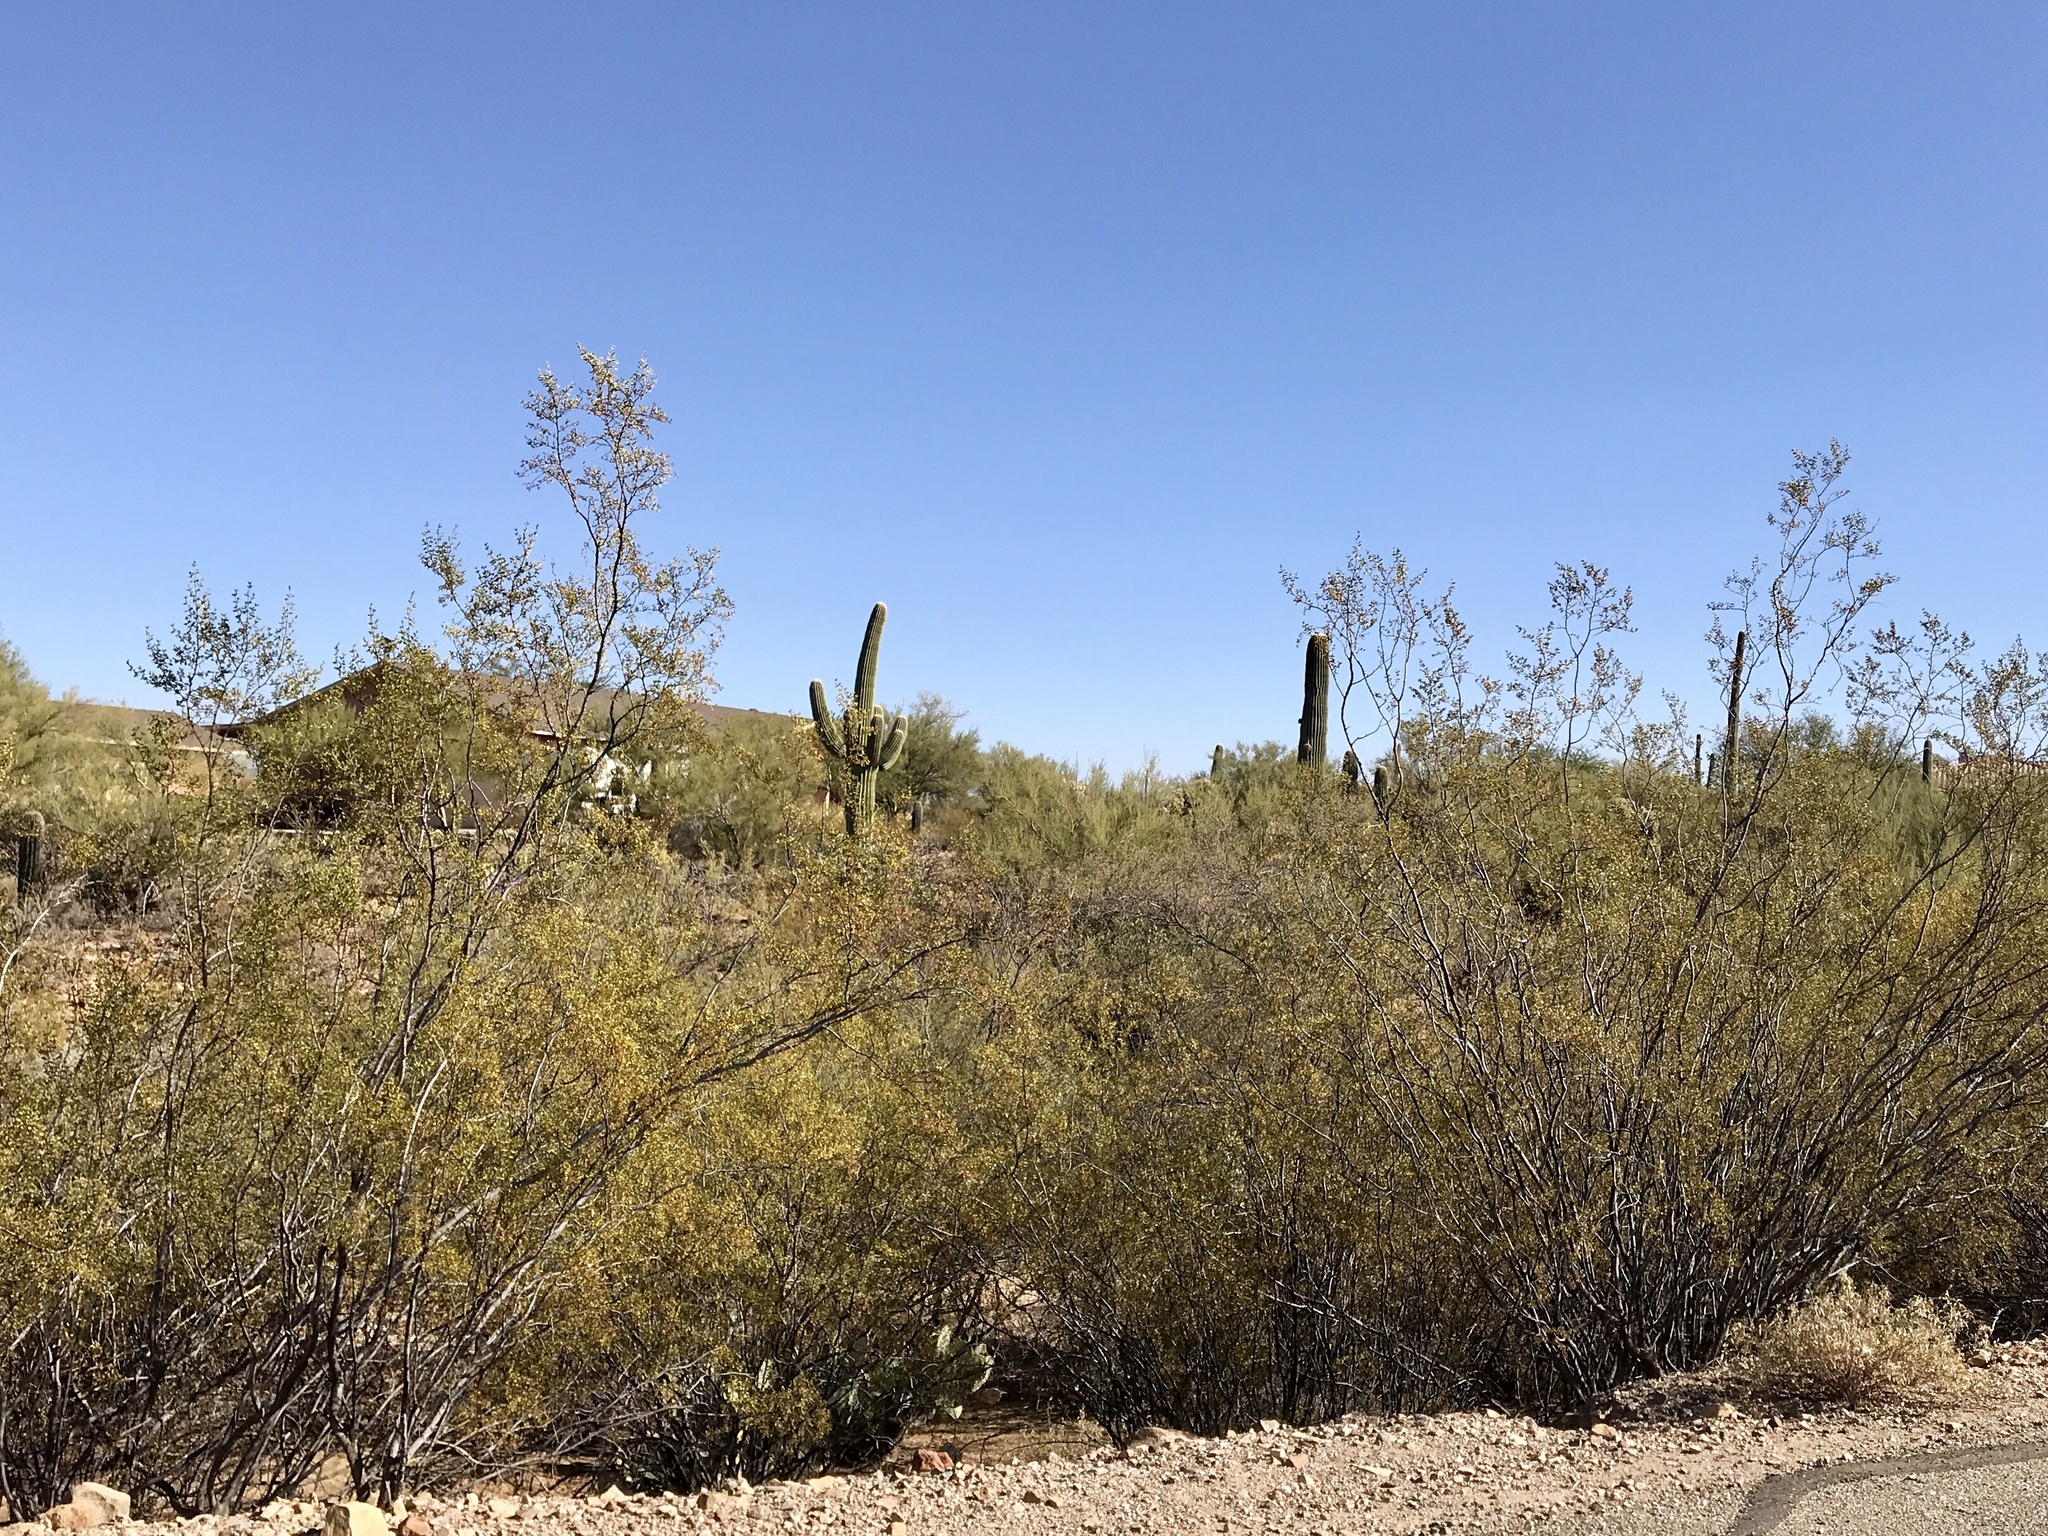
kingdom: Plantae
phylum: Tracheophyta
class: Magnoliopsida
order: Zygophyllales
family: Zygophyllaceae
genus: Larrea
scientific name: Larrea tridentata
